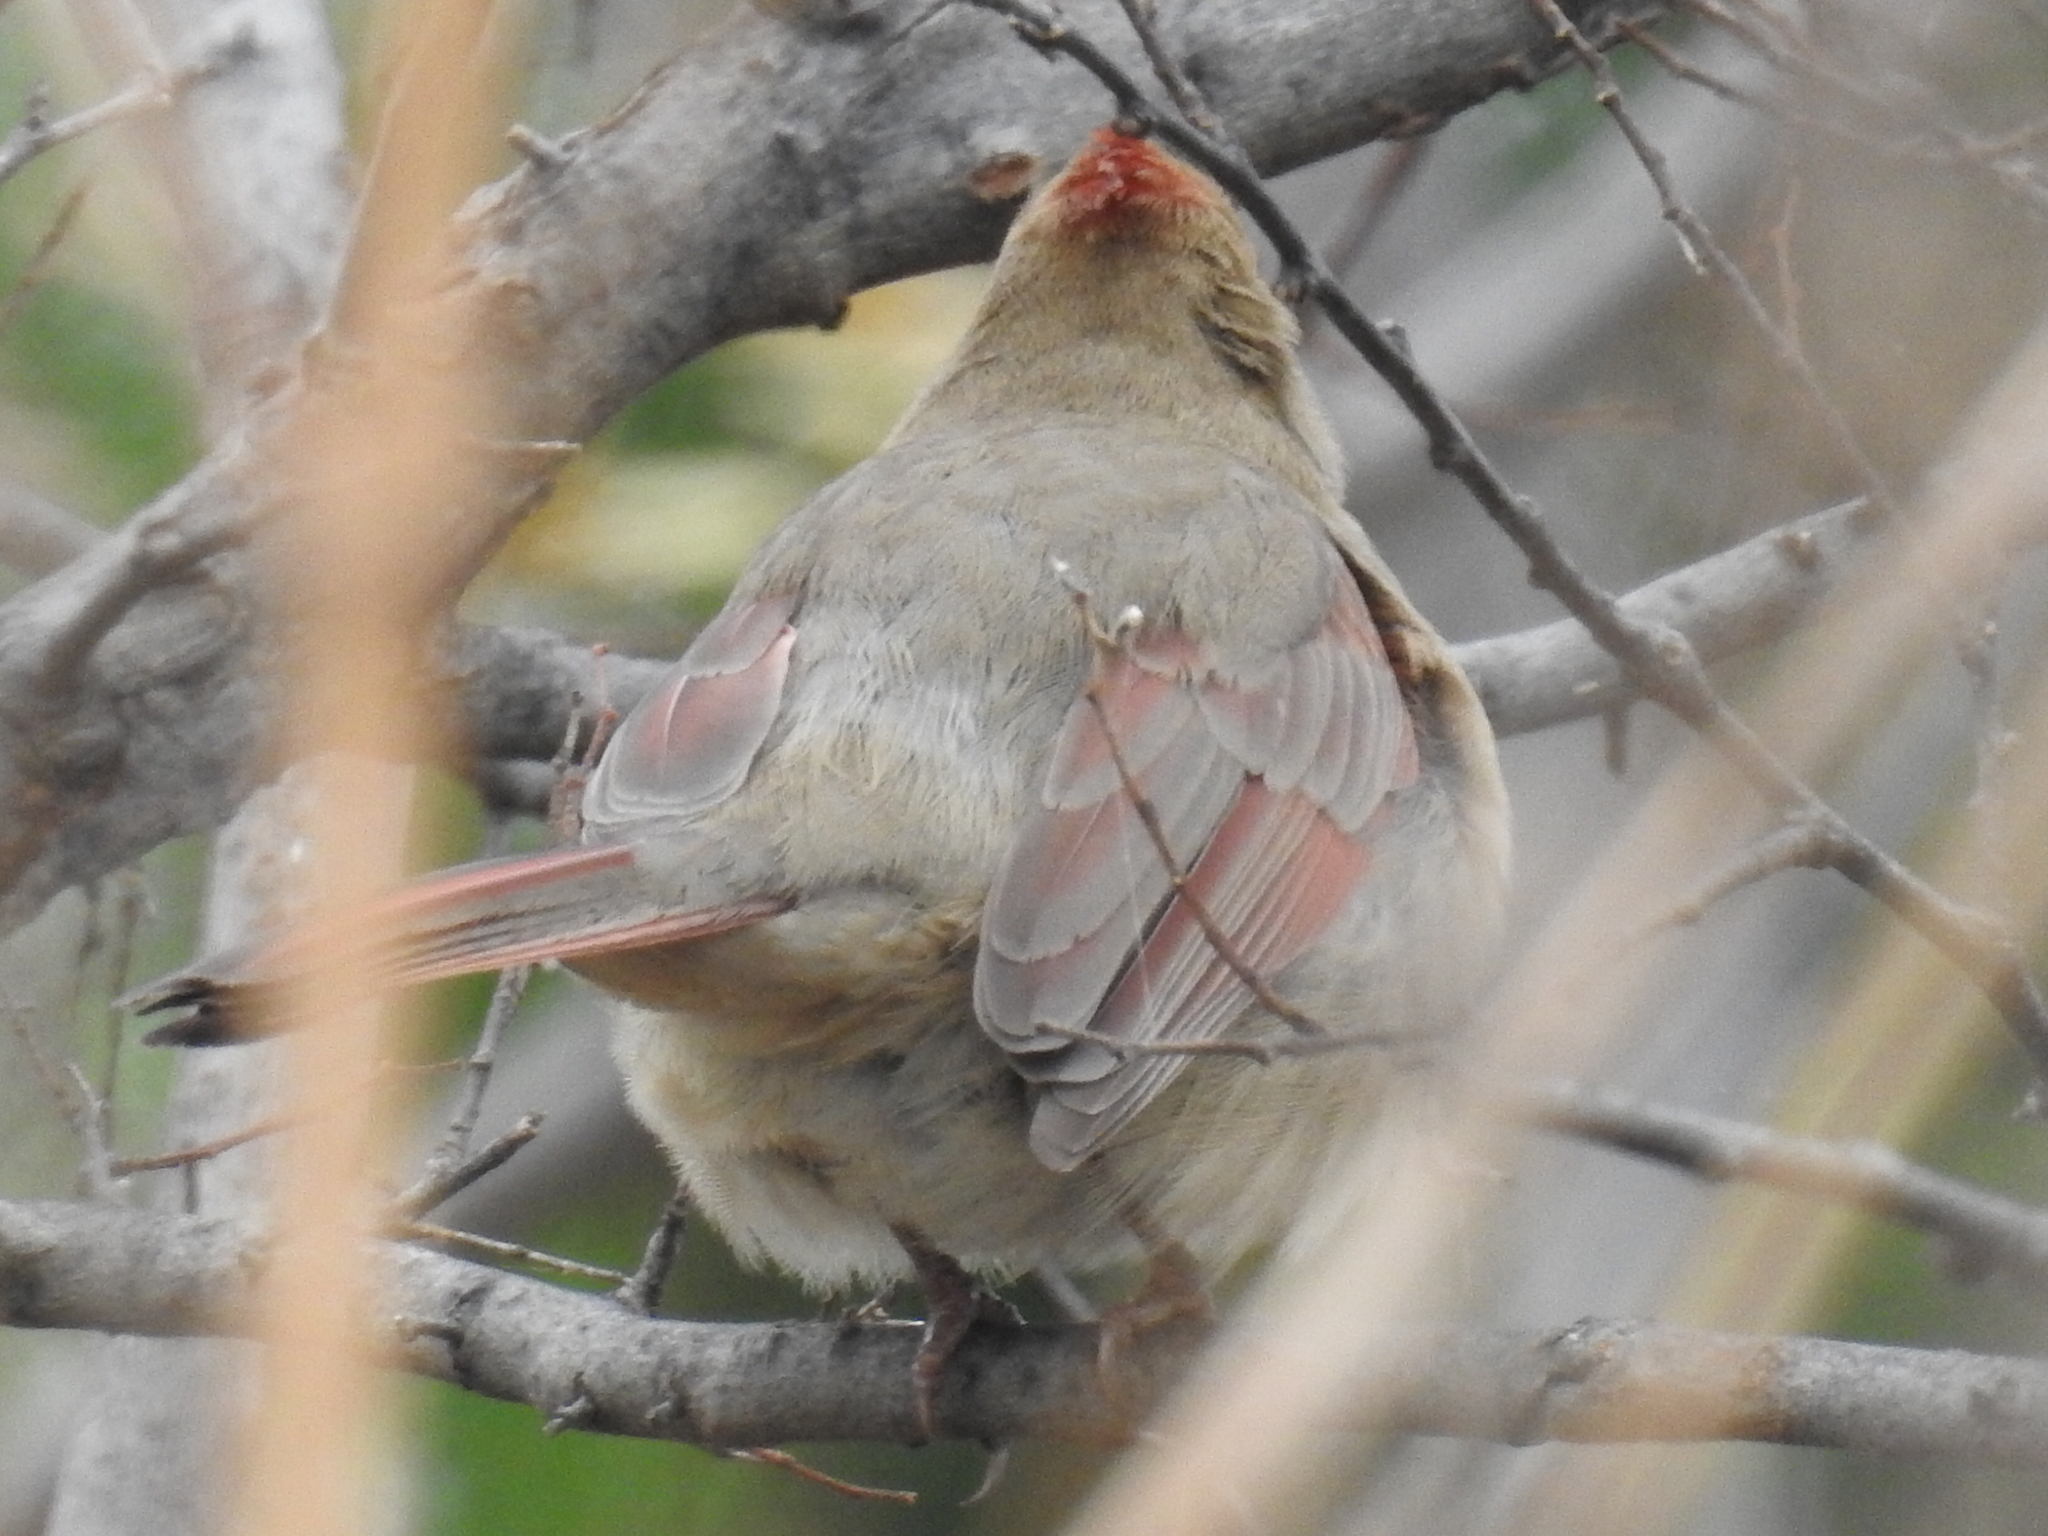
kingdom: Animalia
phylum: Chordata
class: Aves
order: Passeriformes
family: Cardinalidae
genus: Cardinalis
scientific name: Cardinalis cardinalis
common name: Northern cardinal
